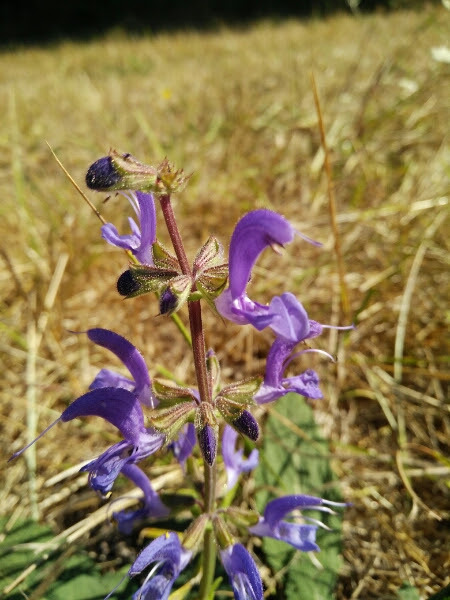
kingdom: Plantae
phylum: Tracheophyta
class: Magnoliopsida
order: Lamiales
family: Lamiaceae
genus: Salvia
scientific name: Salvia pratensis
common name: Meadow sage
